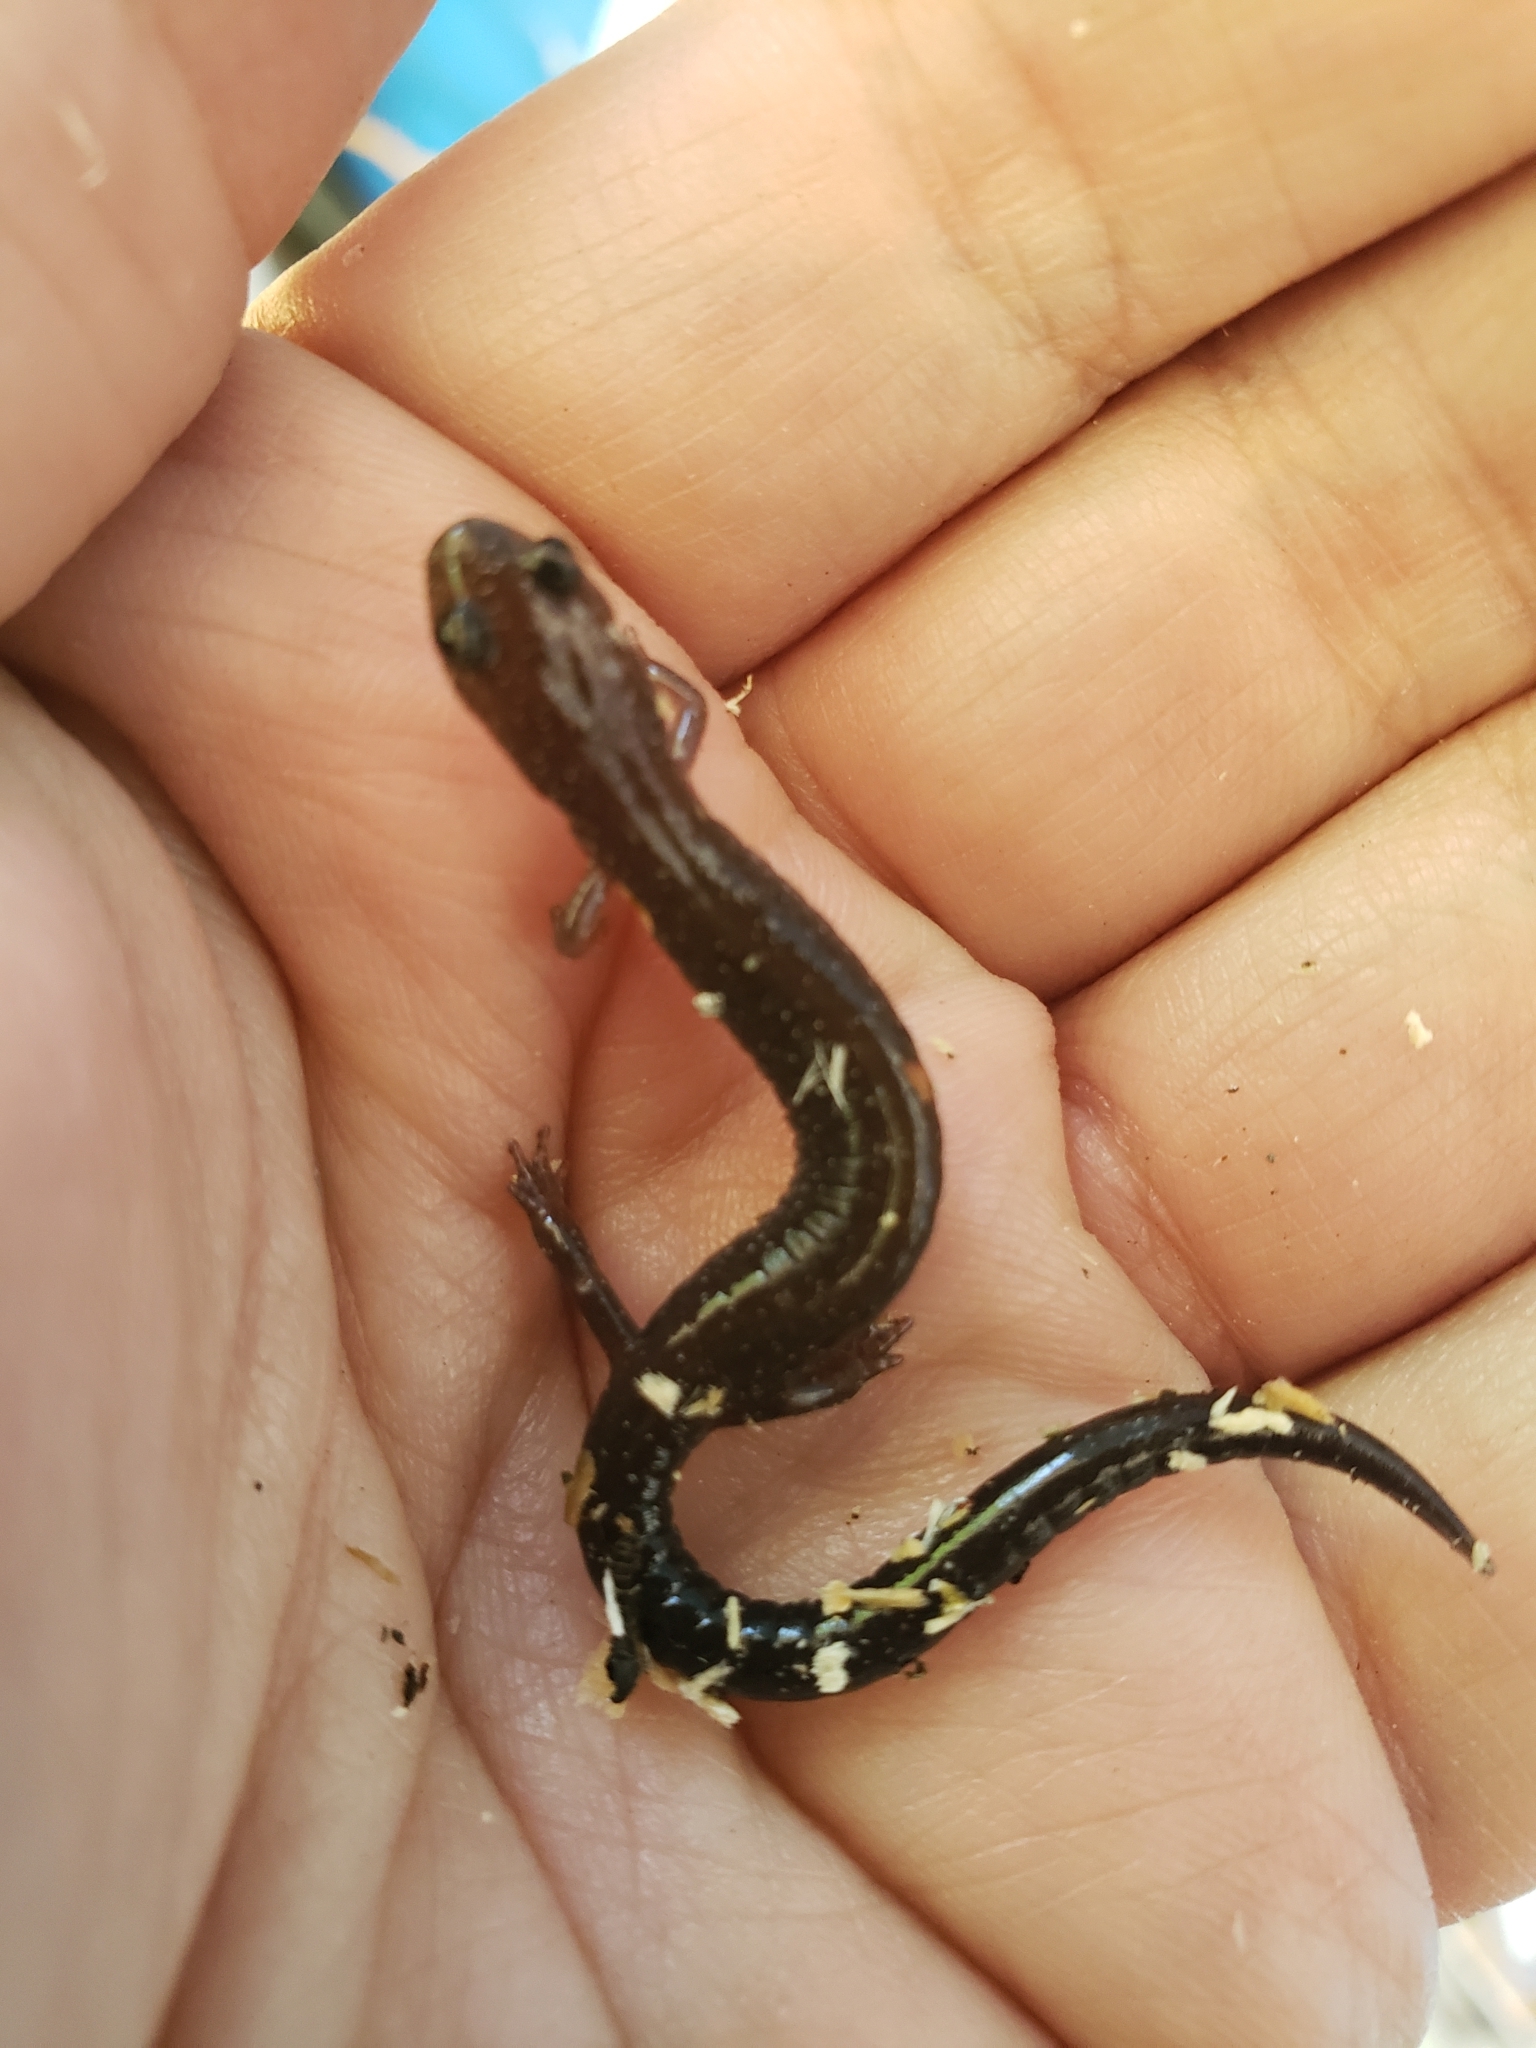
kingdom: Animalia
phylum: Chordata
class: Amphibia
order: Caudata
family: Plethodontidae
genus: Plethodon
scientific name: Plethodon cinereus
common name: Redback salamander
